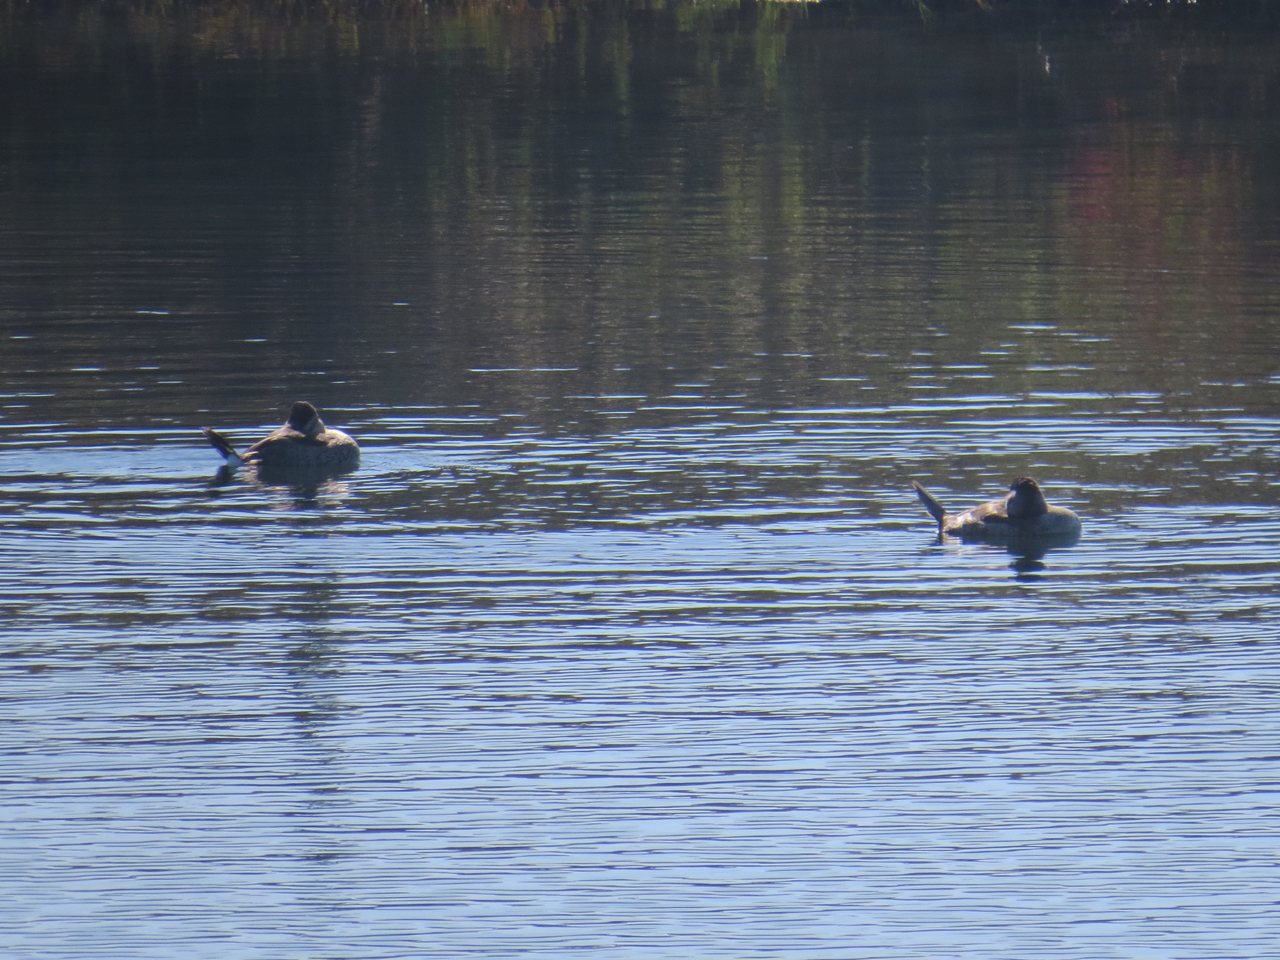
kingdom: Animalia
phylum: Chordata
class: Aves
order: Anseriformes
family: Anatidae
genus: Oxyura
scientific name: Oxyura jamaicensis
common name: Ruddy duck
